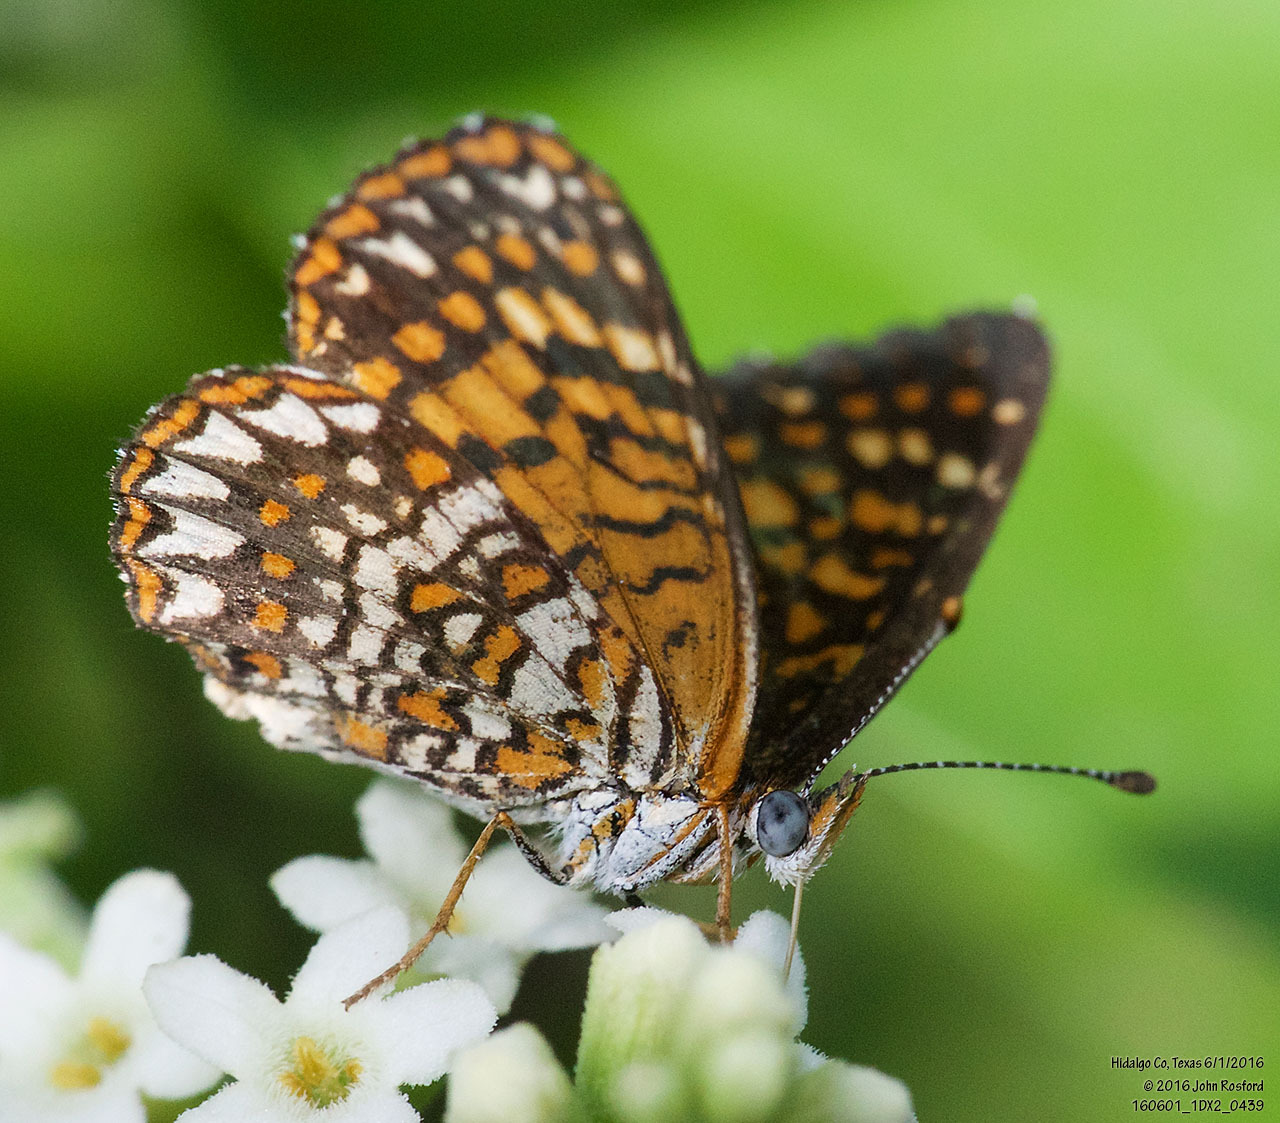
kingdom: Animalia
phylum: Arthropoda
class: Insecta
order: Lepidoptera
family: Nymphalidae
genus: Texola
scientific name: Texola elada
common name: Elada checkerspot
